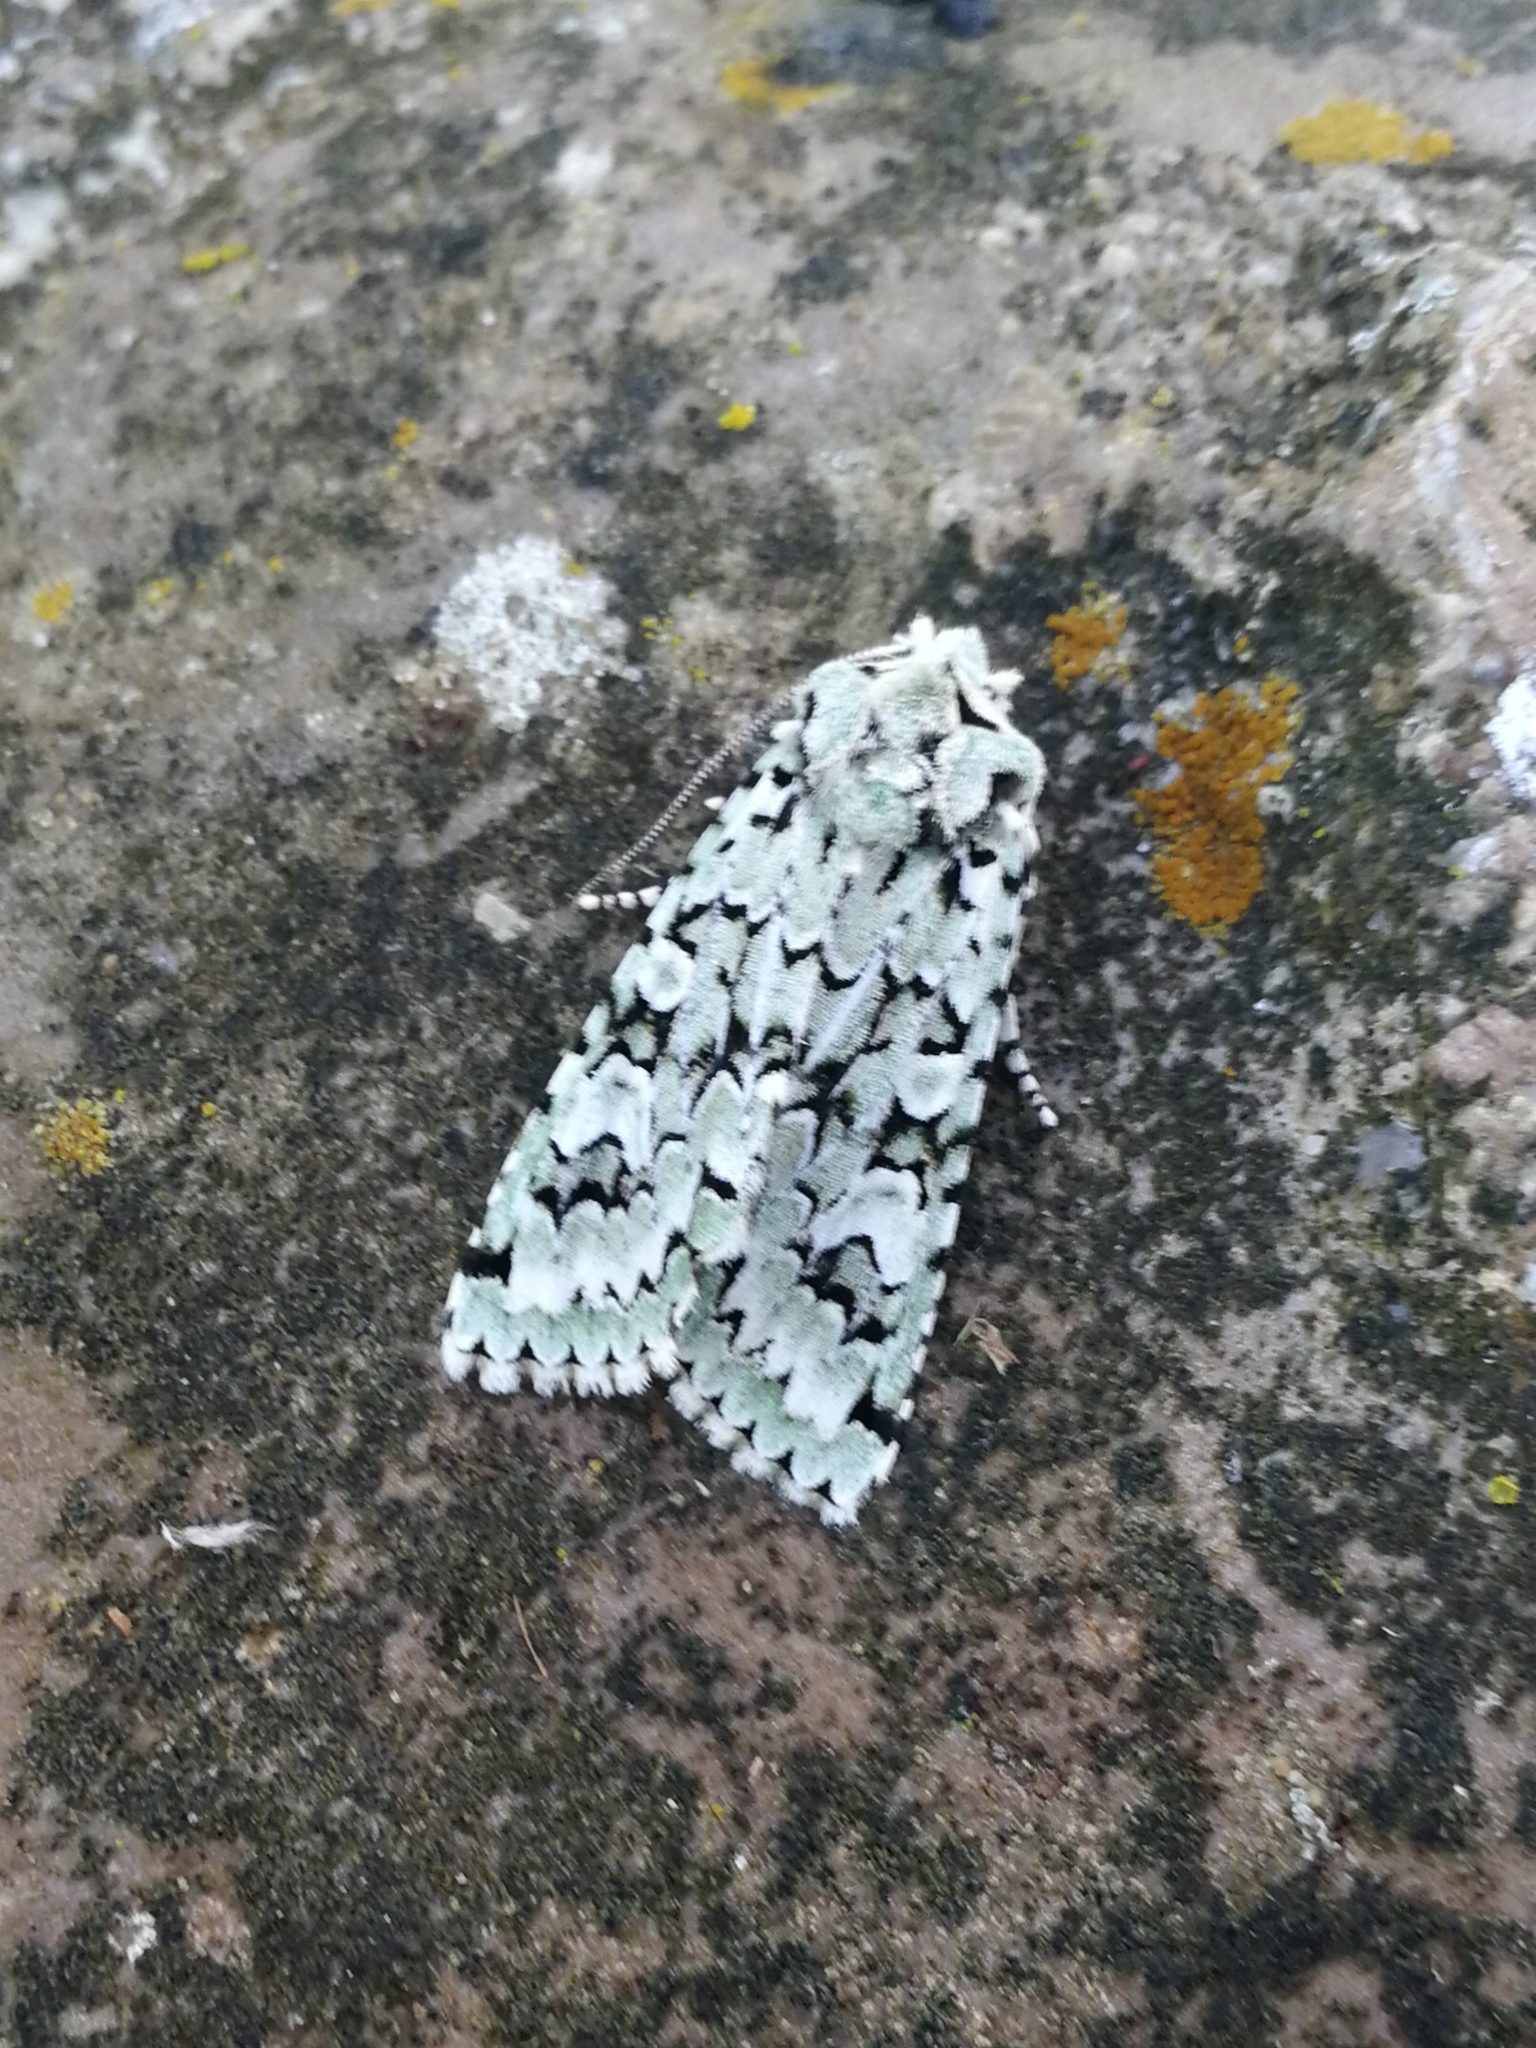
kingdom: Animalia
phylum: Arthropoda
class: Insecta
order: Lepidoptera
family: Noctuidae
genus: Griposia
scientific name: Griposia aprilina
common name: Merveille du jour
